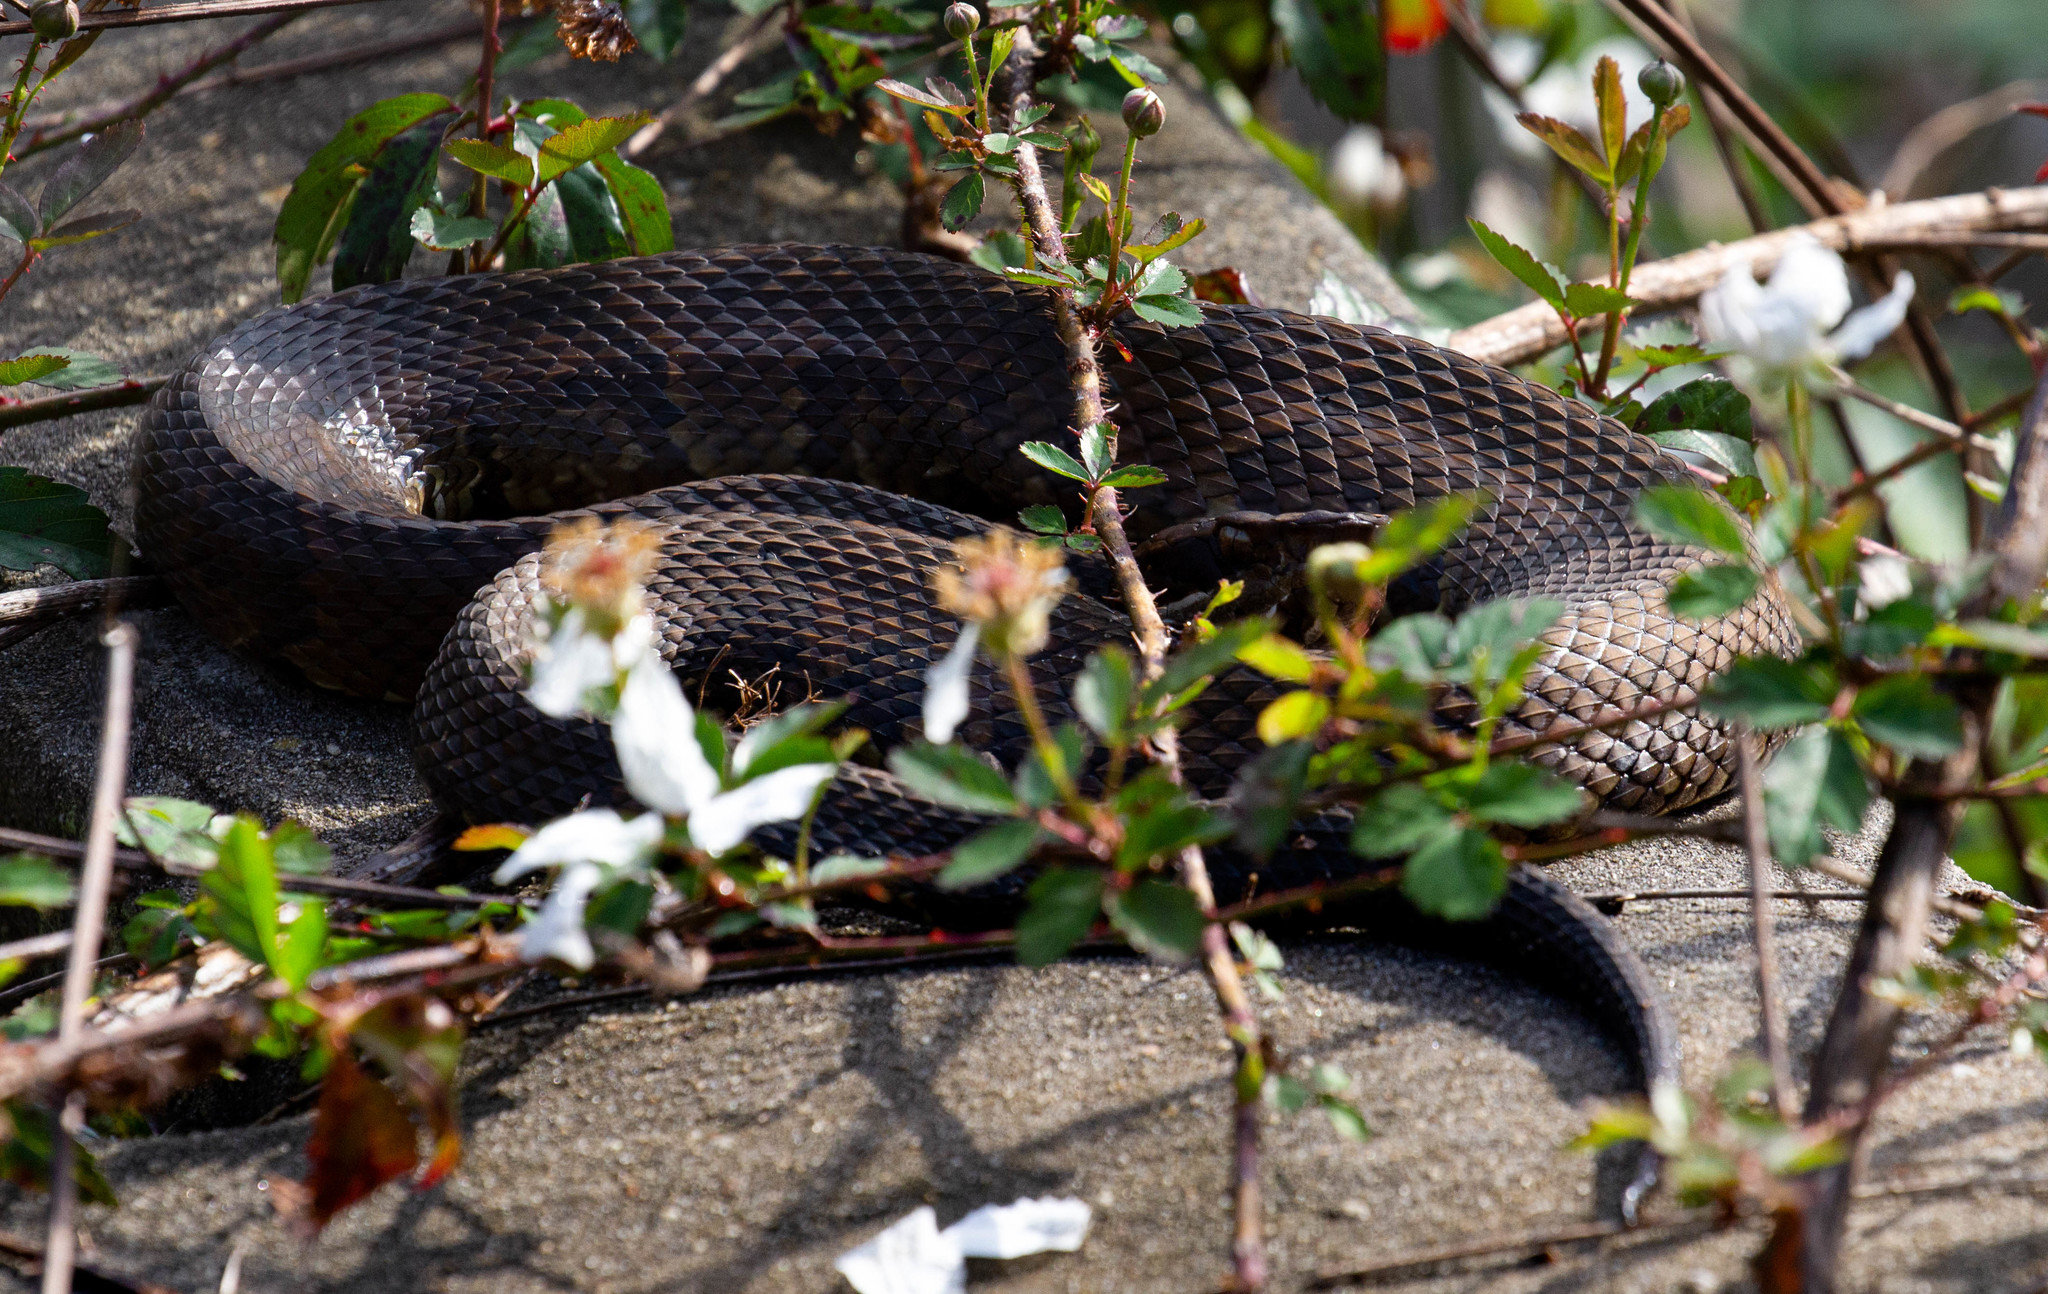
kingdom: Animalia
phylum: Chordata
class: Squamata
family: Viperidae
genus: Agkistrodon
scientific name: Agkistrodon piscivorus
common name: Cottonmouth
